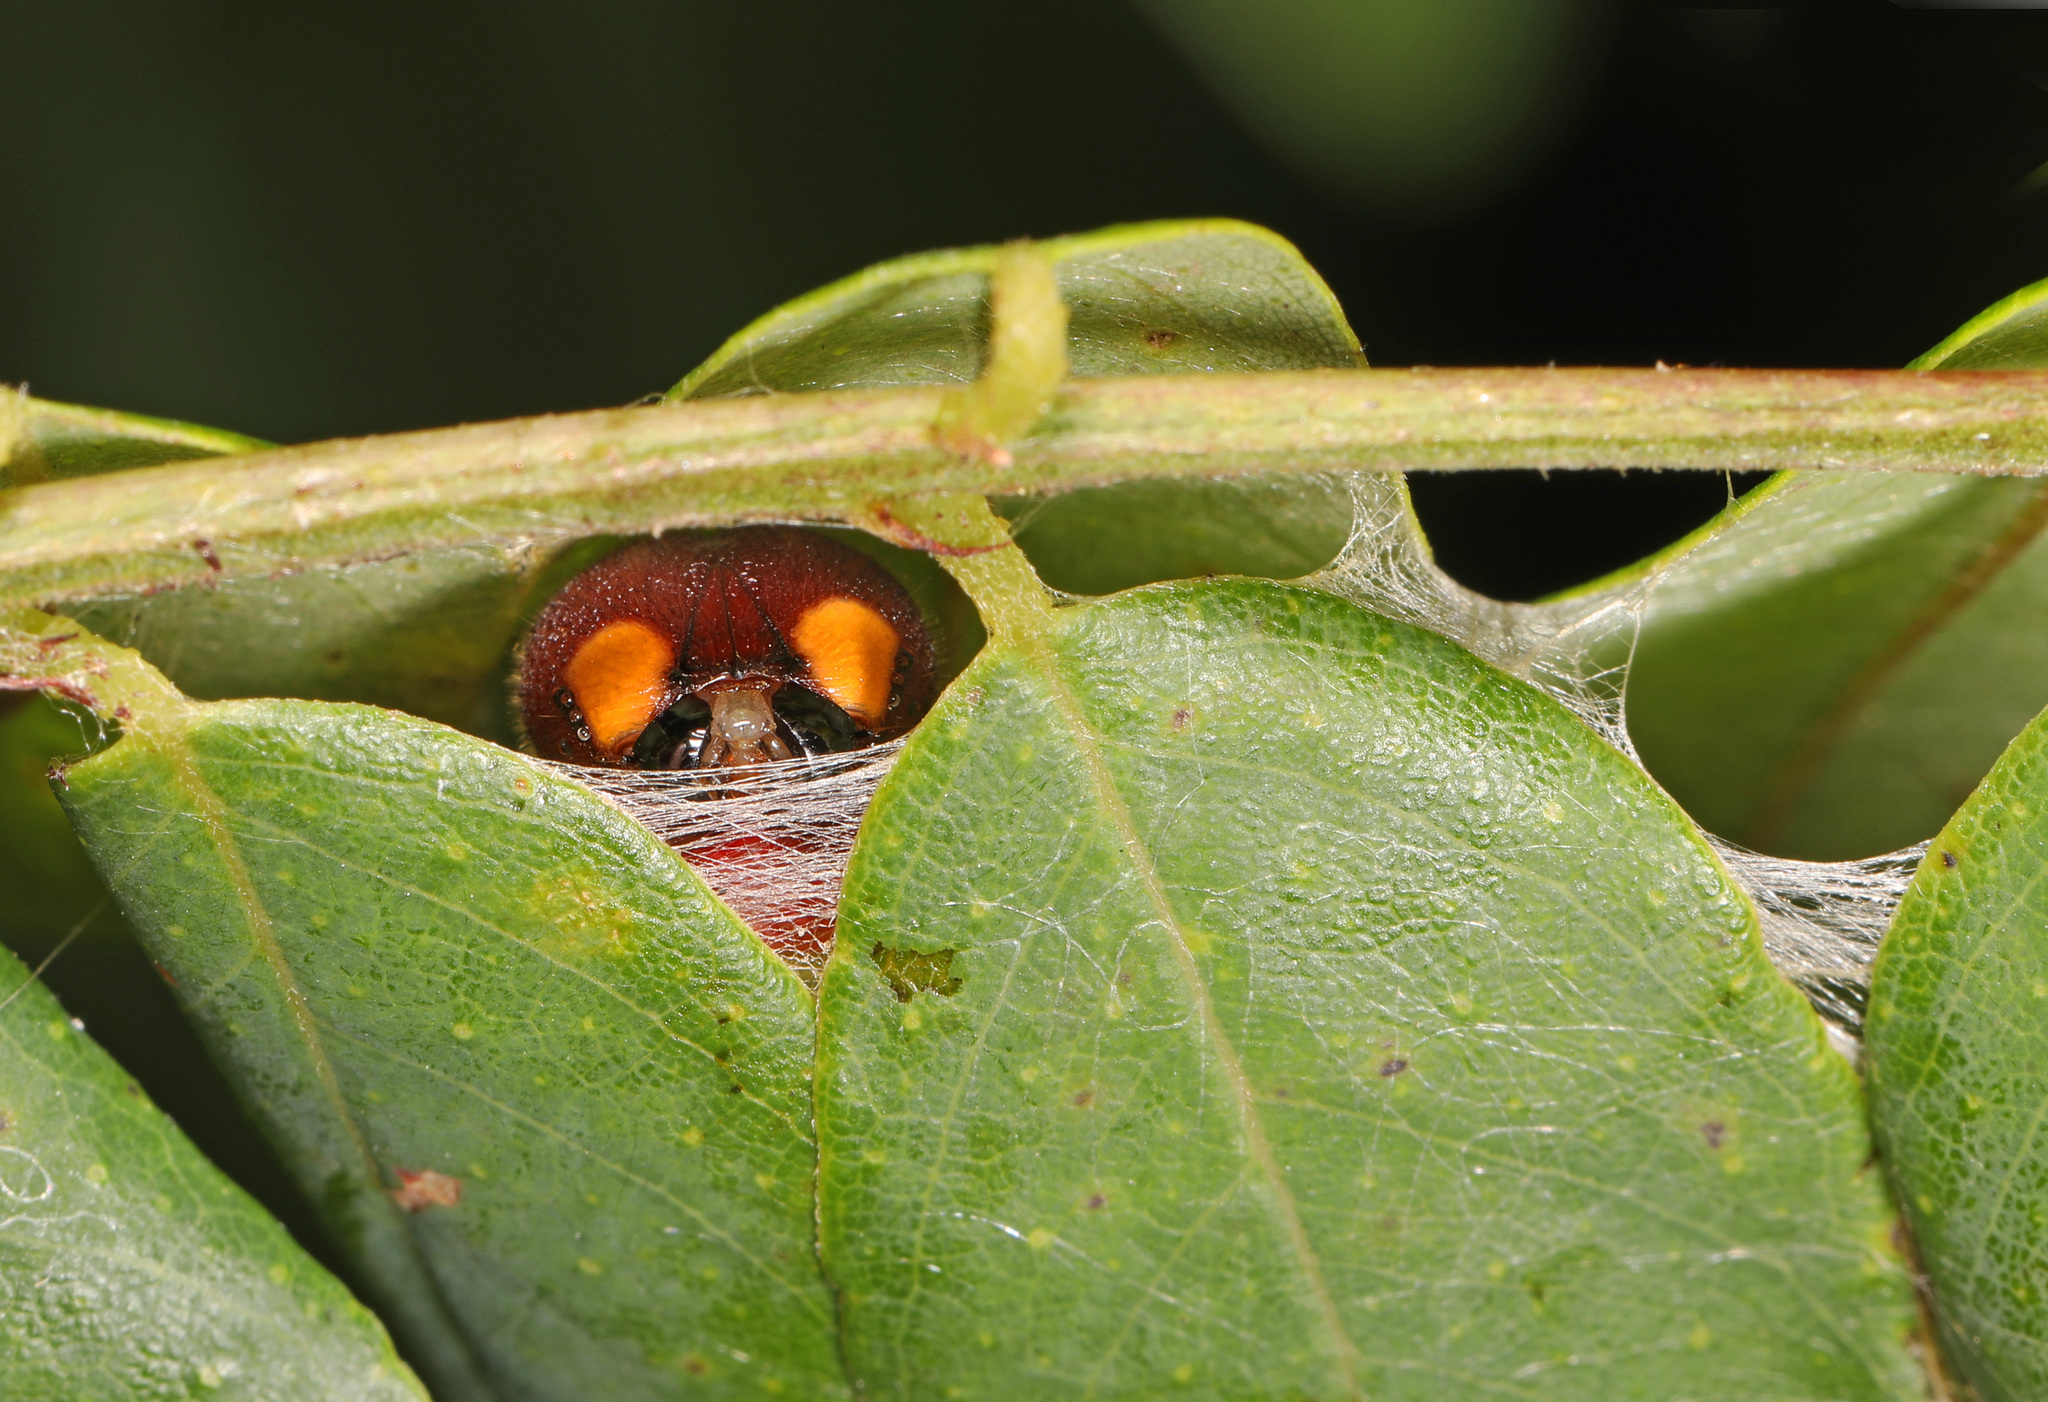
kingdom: Animalia
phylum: Arthropoda
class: Insecta
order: Lepidoptera
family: Hesperiidae
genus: Epargyreus
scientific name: Epargyreus clarus
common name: Silver-spotted skipper
